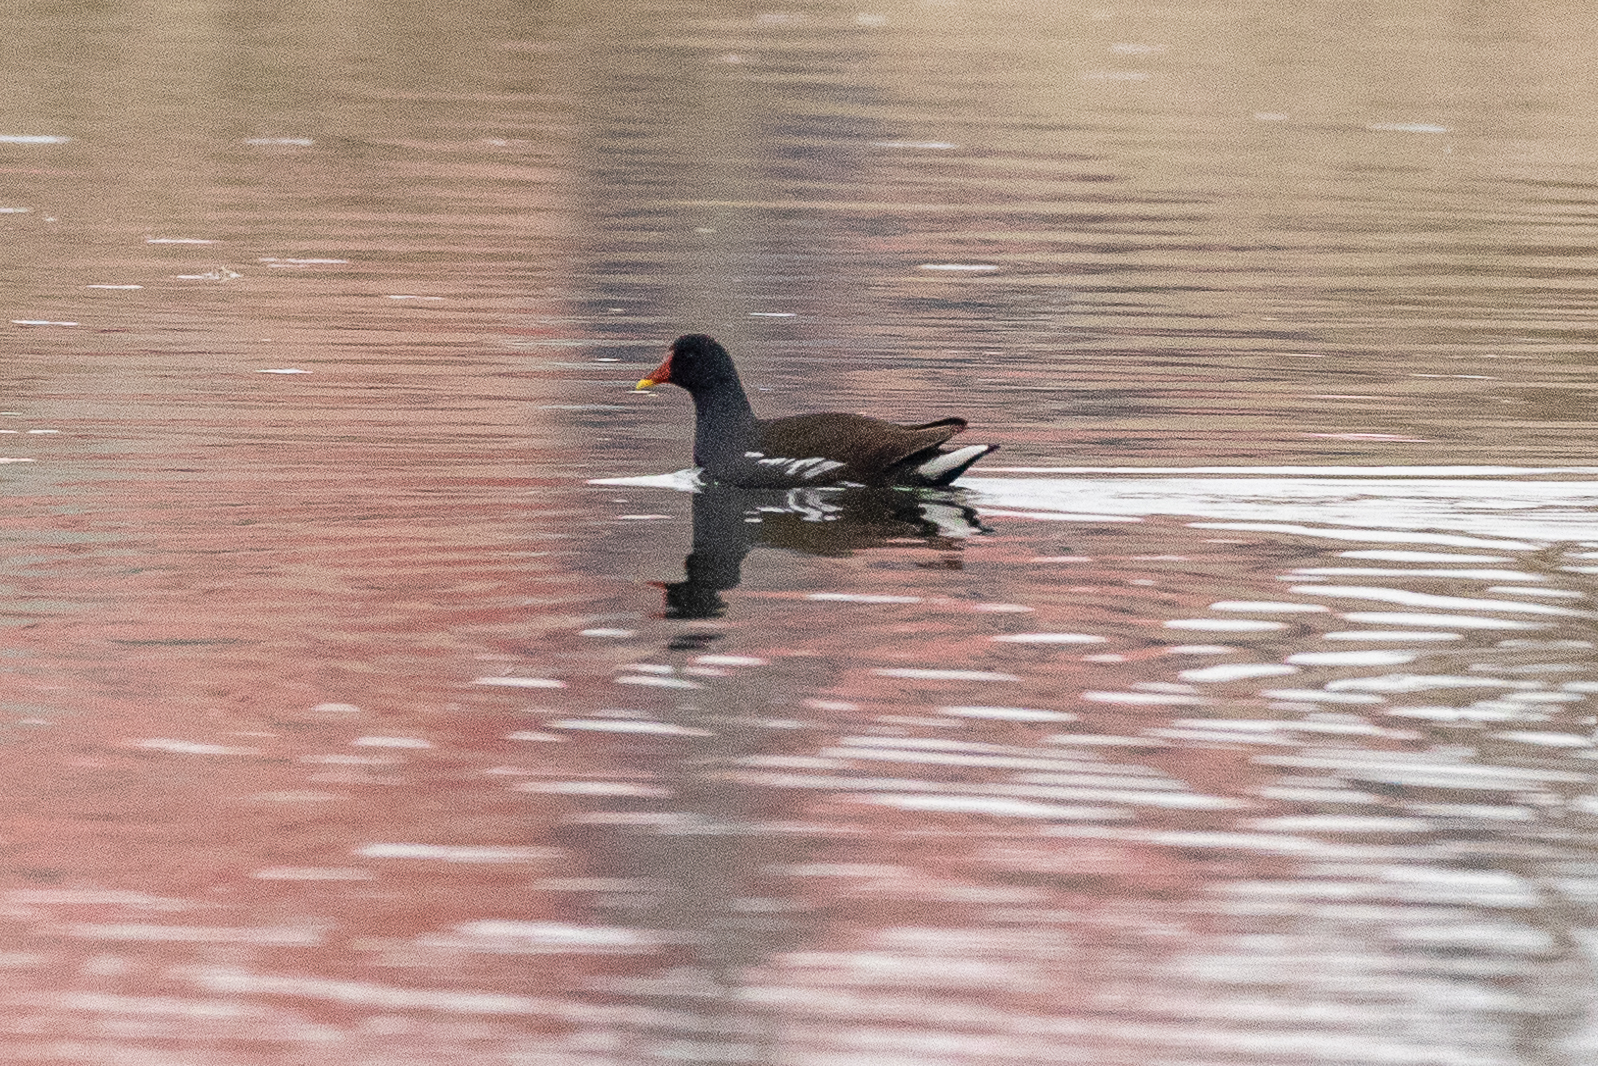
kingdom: Animalia
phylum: Chordata
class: Aves
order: Gruiformes
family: Rallidae
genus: Gallinula
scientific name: Gallinula chloropus
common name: Common moorhen
